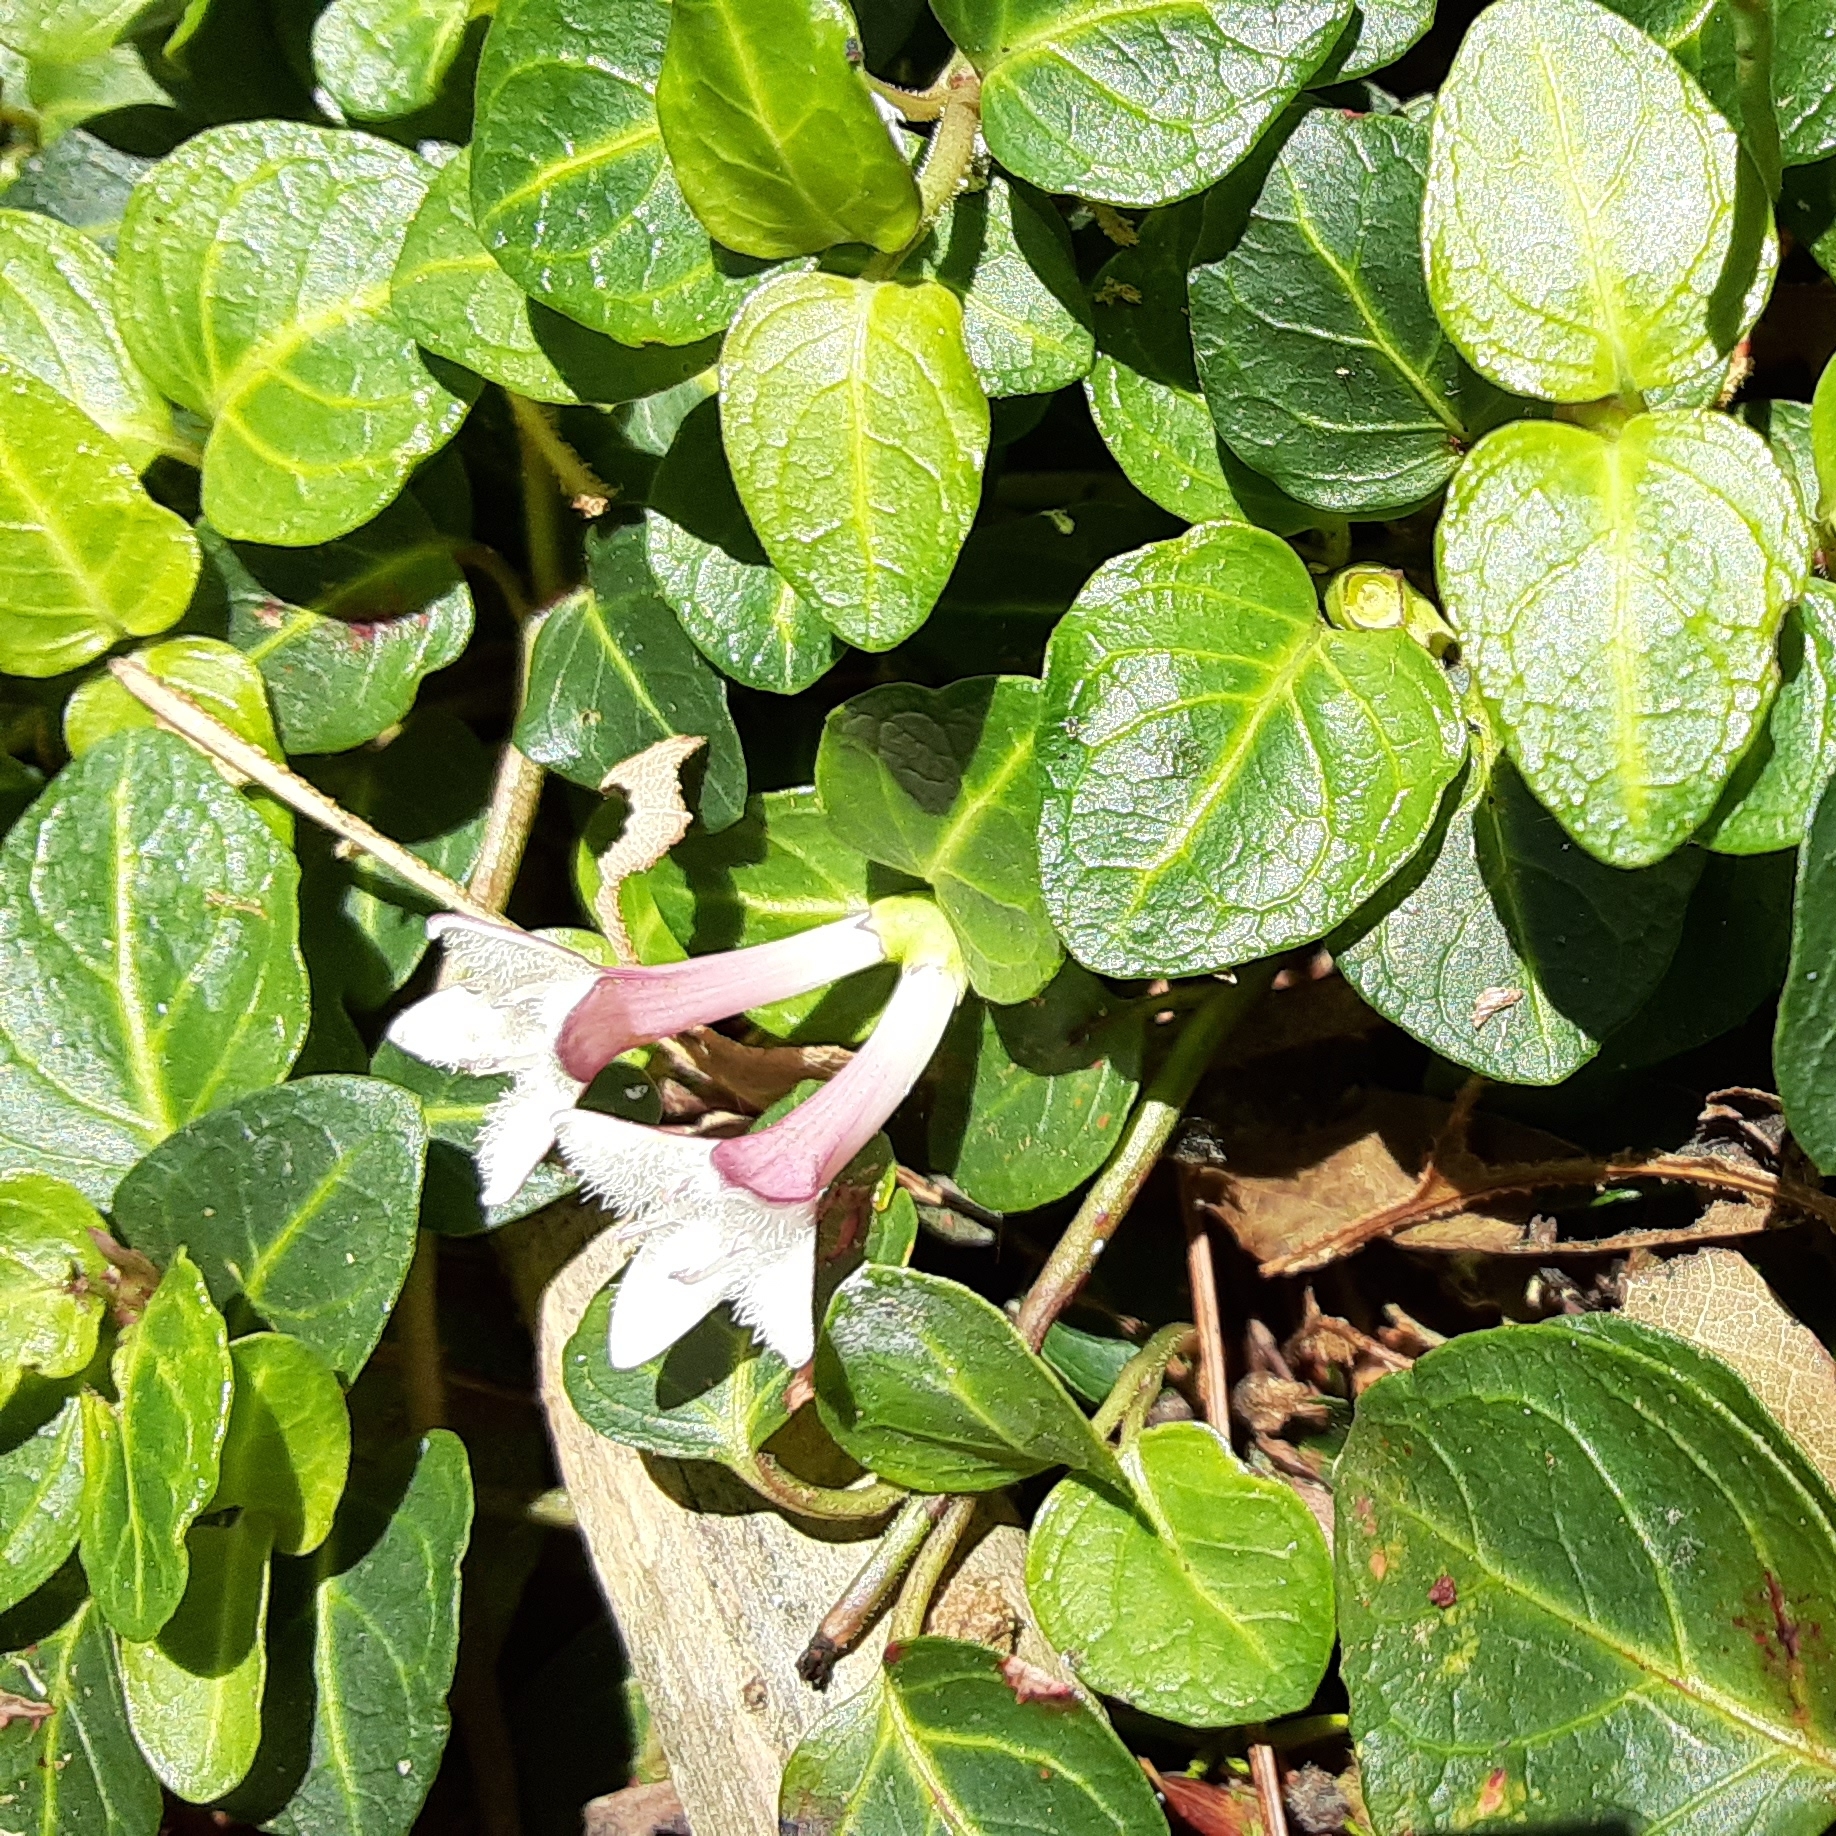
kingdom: Plantae
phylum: Tracheophyta
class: Magnoliopsida
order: Gentianales
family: Rubiaceae
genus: Mitchella
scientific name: Mitchella repens
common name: Partridge-berry
